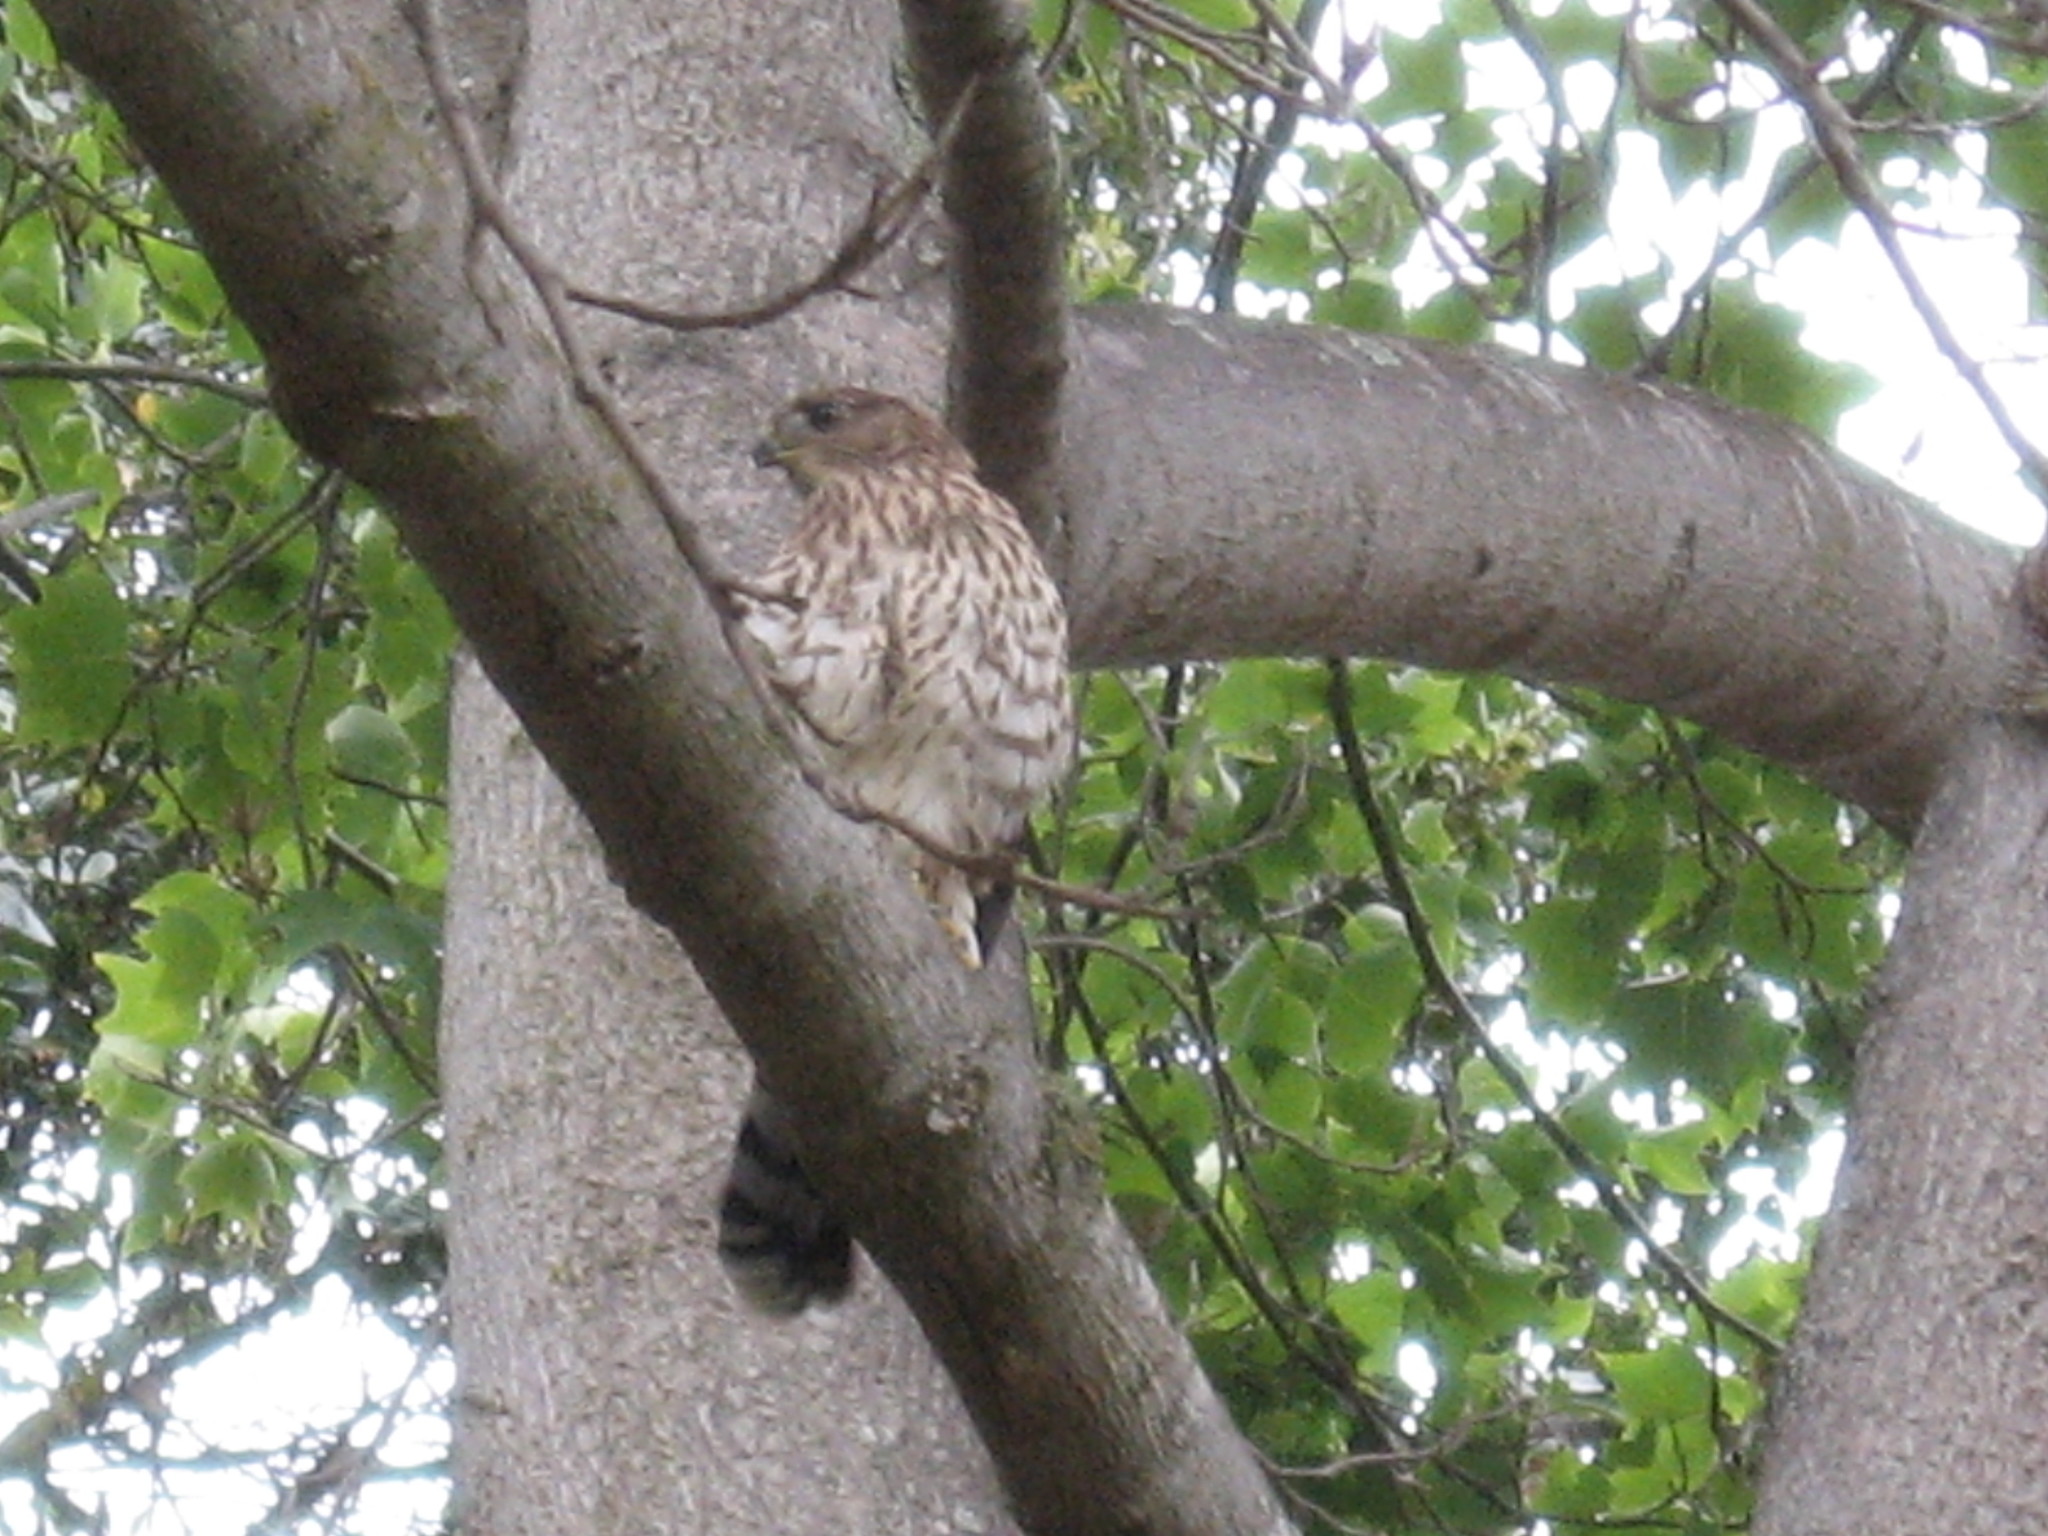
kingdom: Animalia
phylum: Chordata
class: Aves
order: Accipitriformes
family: Accipitridae
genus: Accipiter
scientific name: Accipiter cooperii
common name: Cooper's hawk
